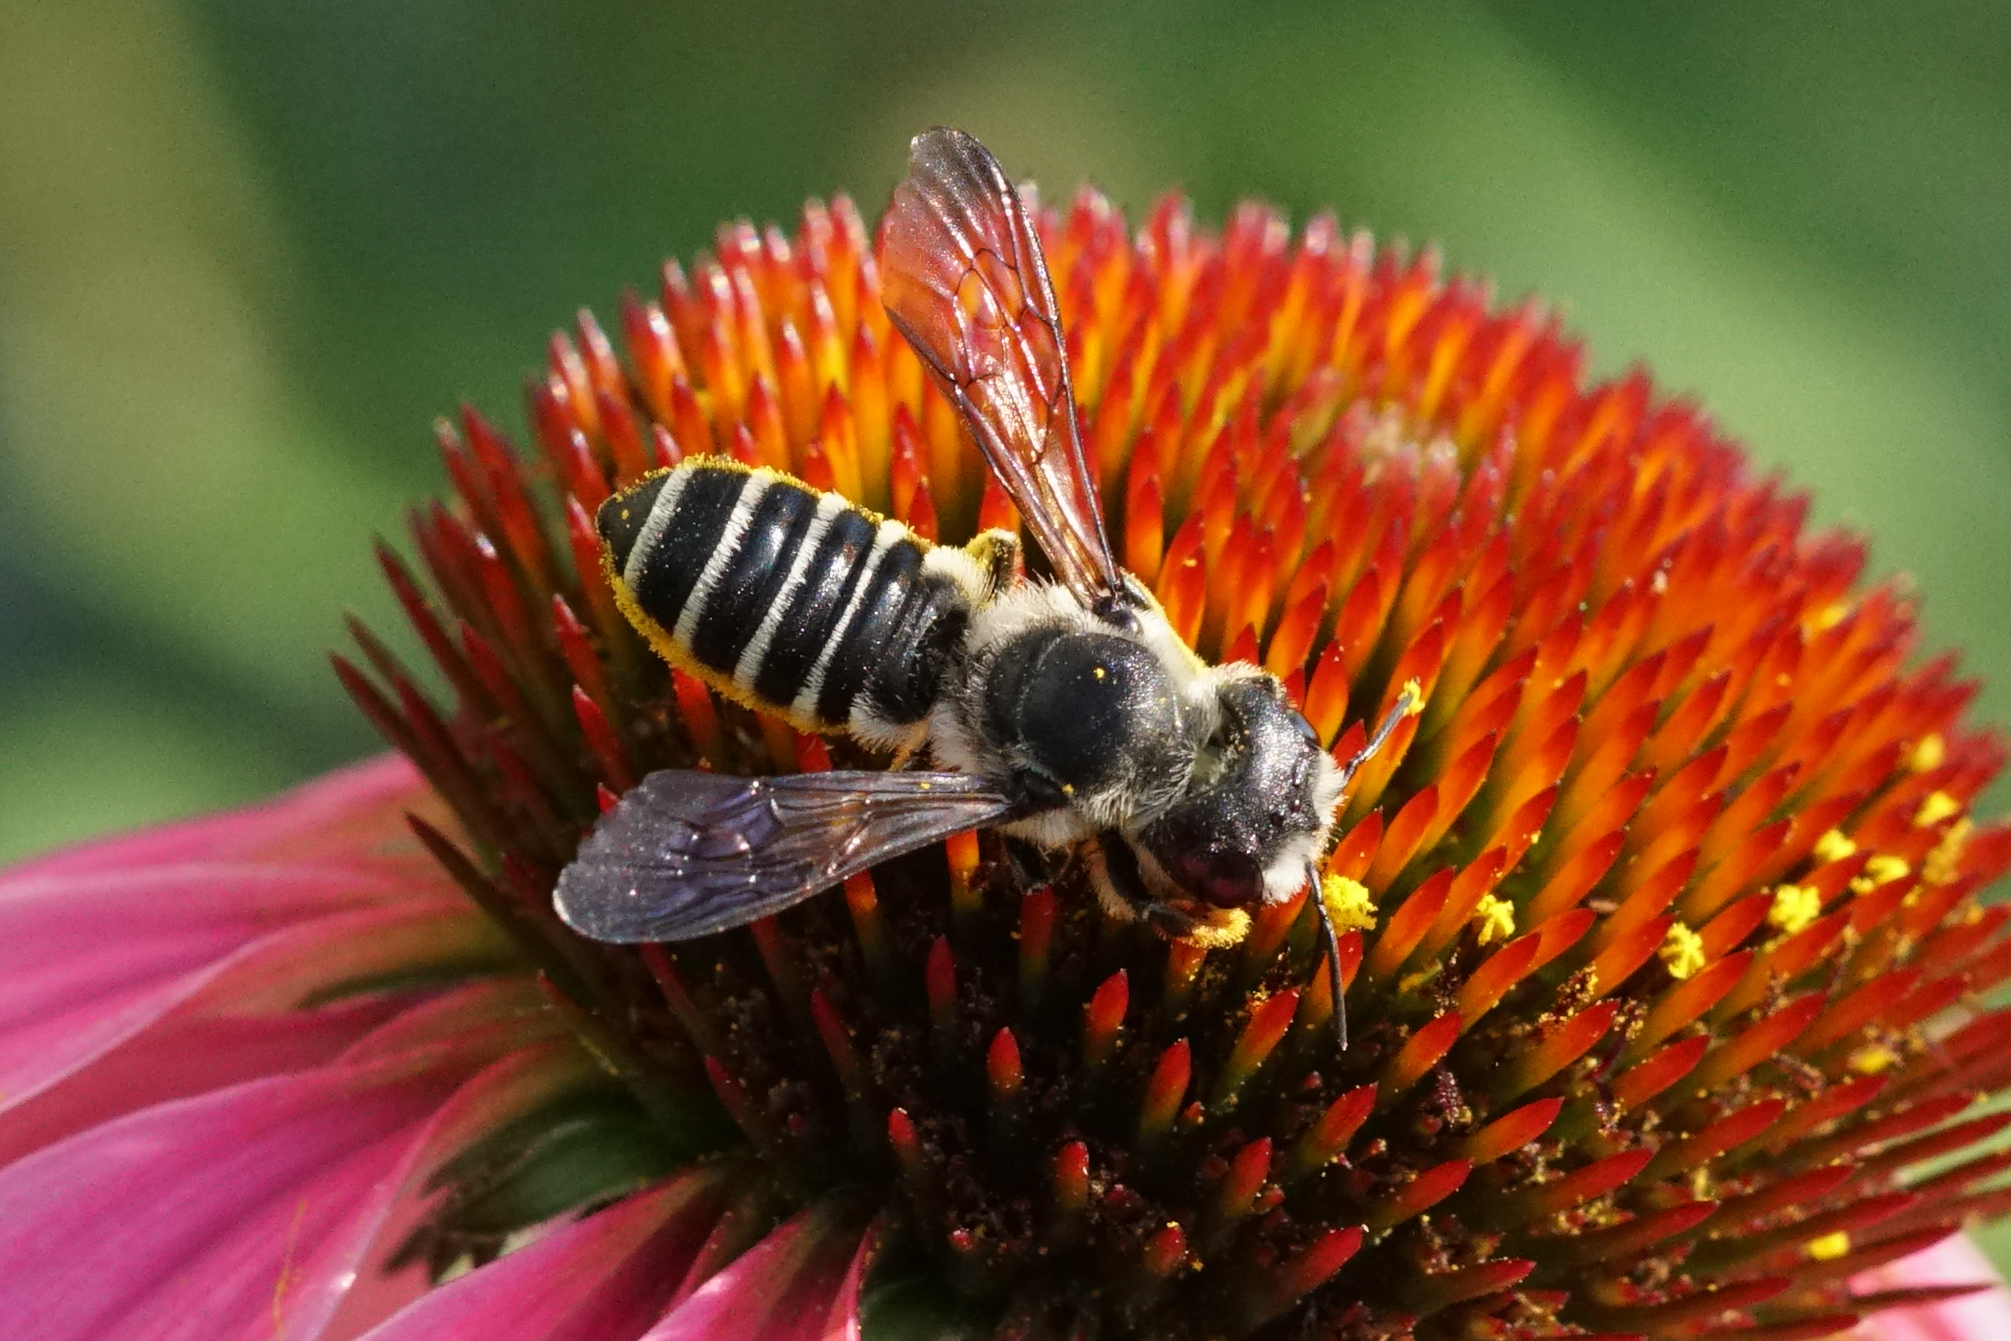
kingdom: Animalia
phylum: Arthropoda
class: Insecta
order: Hymenoptera
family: Megachilidae
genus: Megachile
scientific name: Megachile pugnata
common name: Pugnacious leafcutter bee
